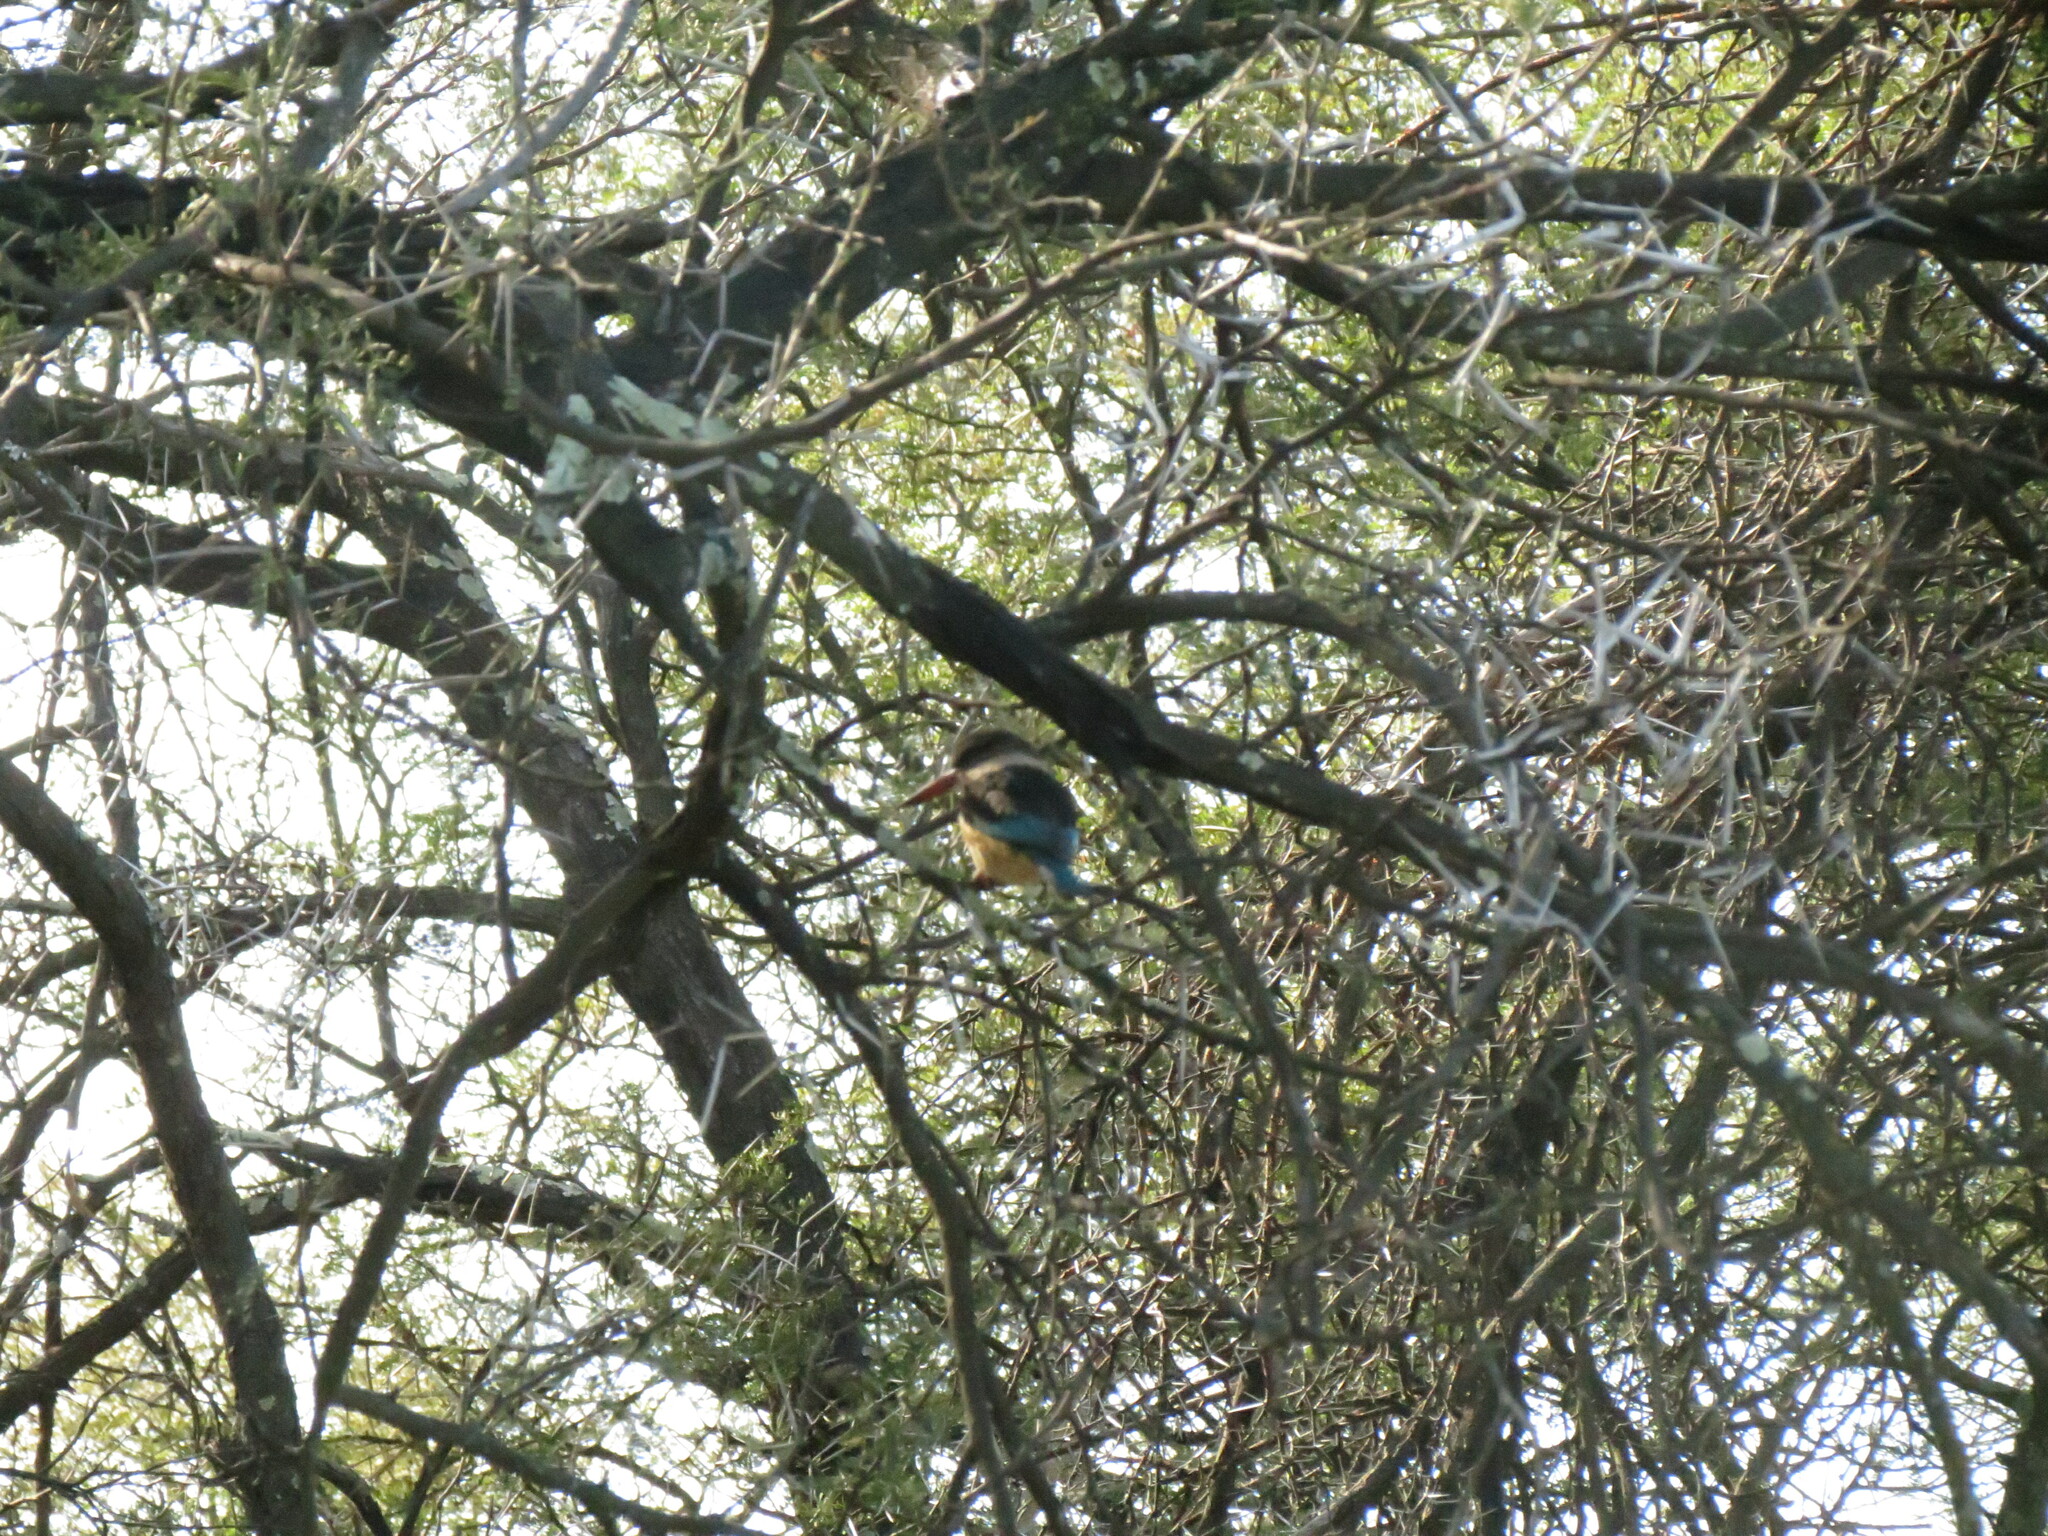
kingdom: Animalia
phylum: Chordata
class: Aves
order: Coraciiformes
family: Alcedinidae
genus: Halcyon
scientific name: Halcyon albiventris
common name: Brown-hooded kingfisher
